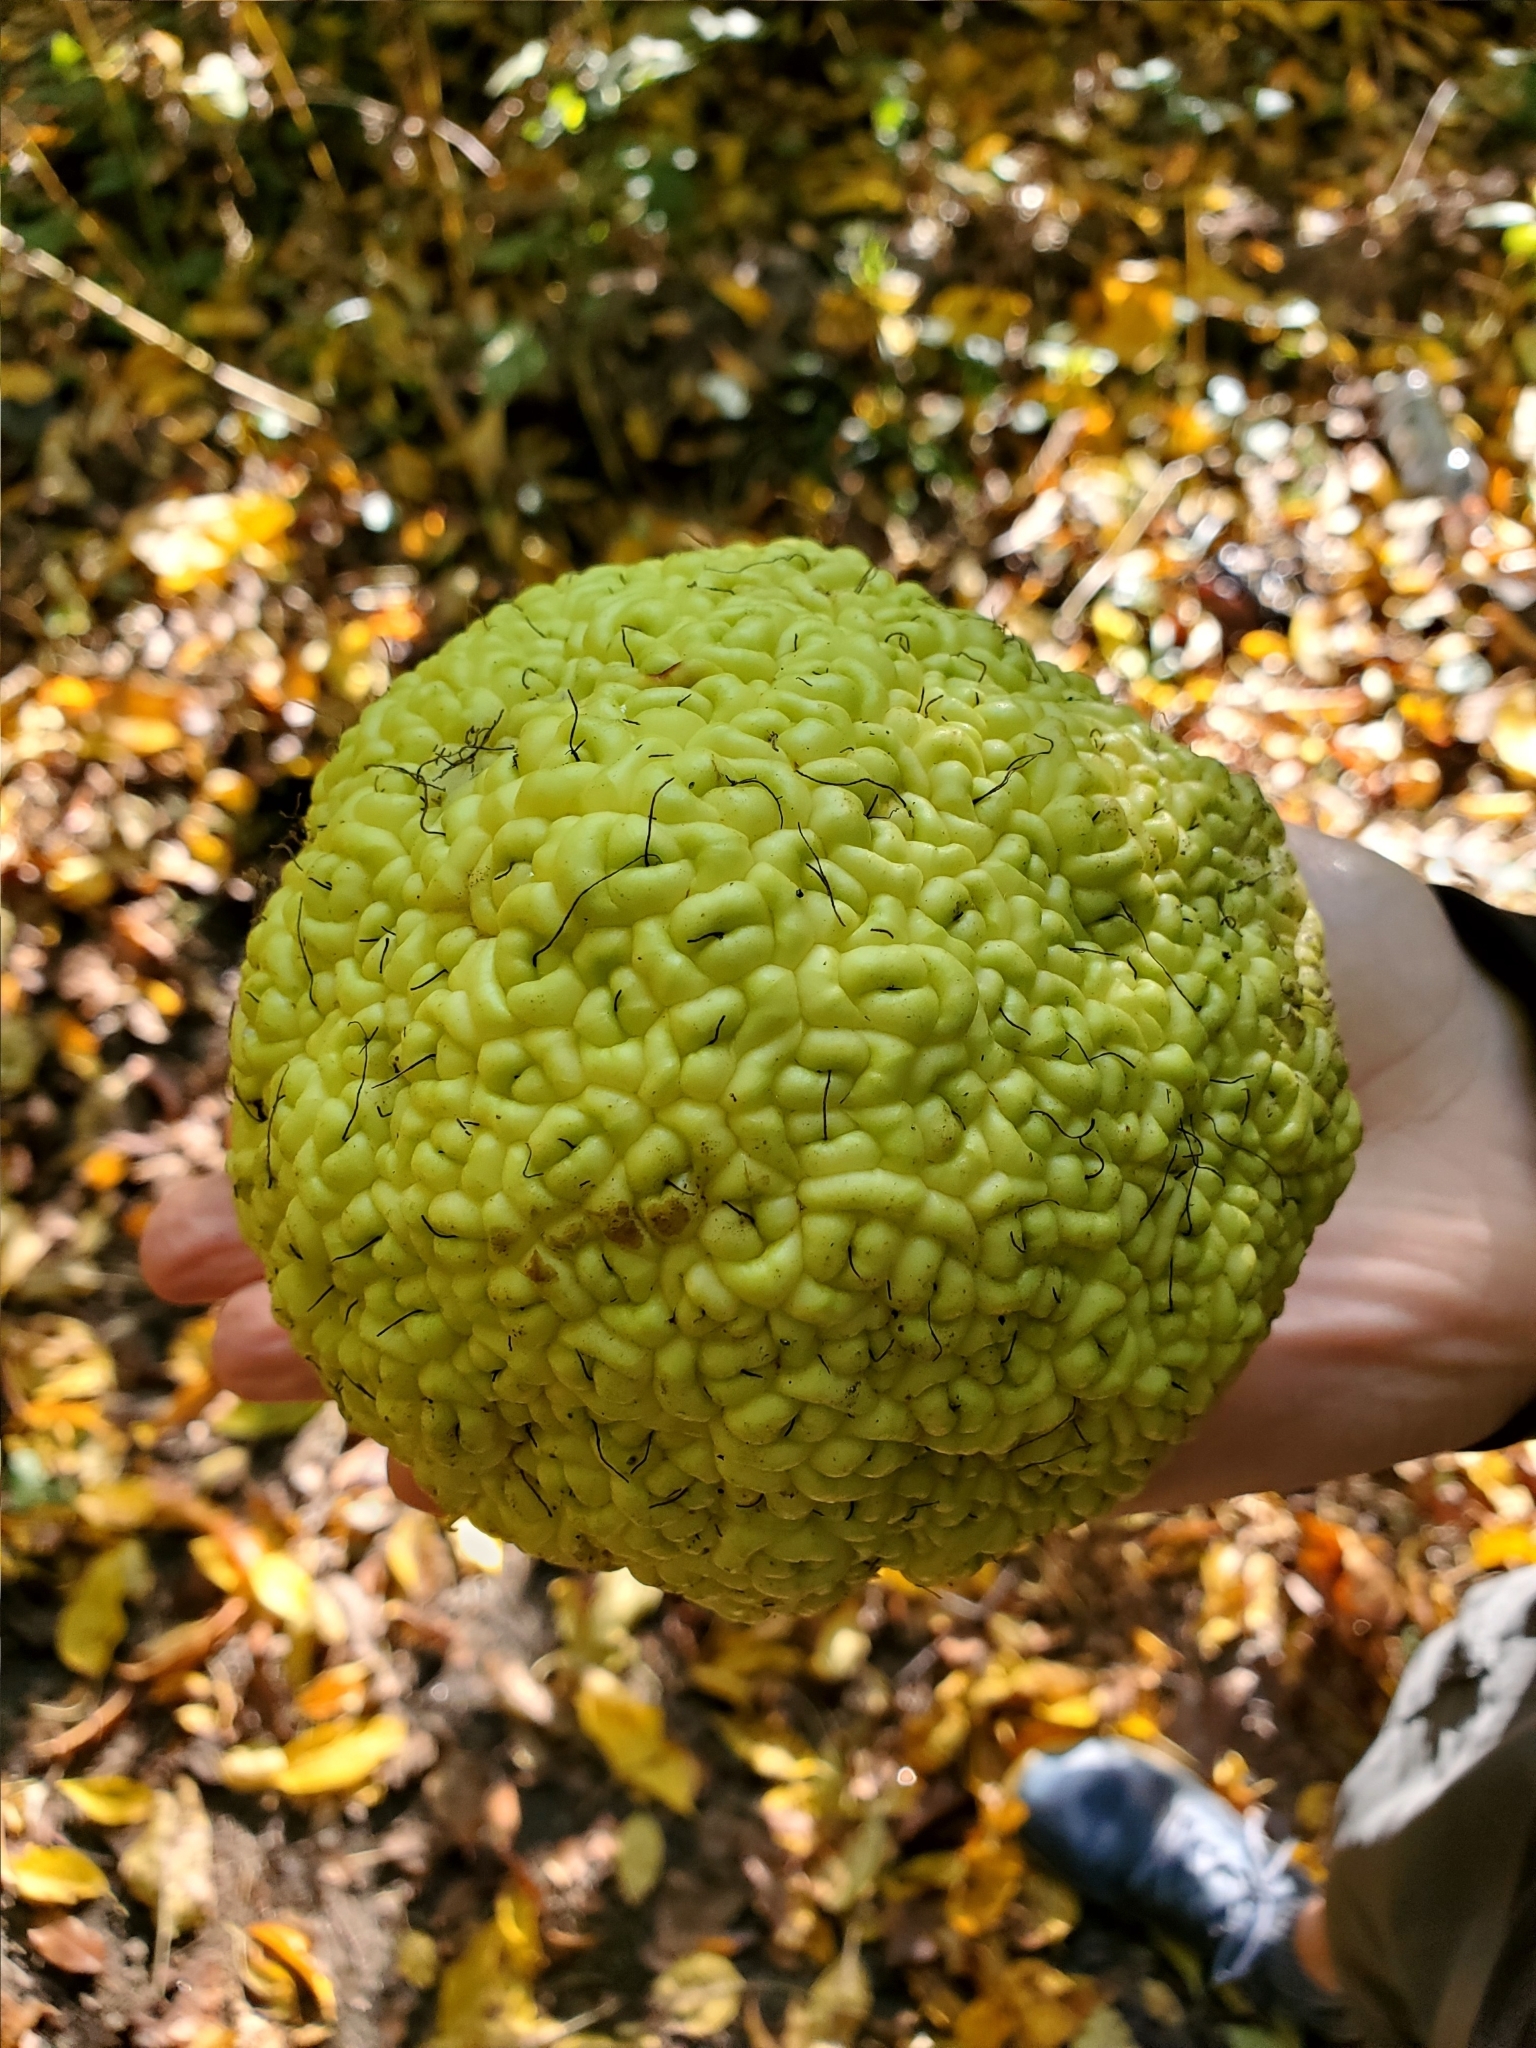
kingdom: Plantae
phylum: Tracheophyta
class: Magnoliopsida
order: Rosales
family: Moraceae
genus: Maclura
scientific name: Maclura pomifera
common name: Osage-orange
